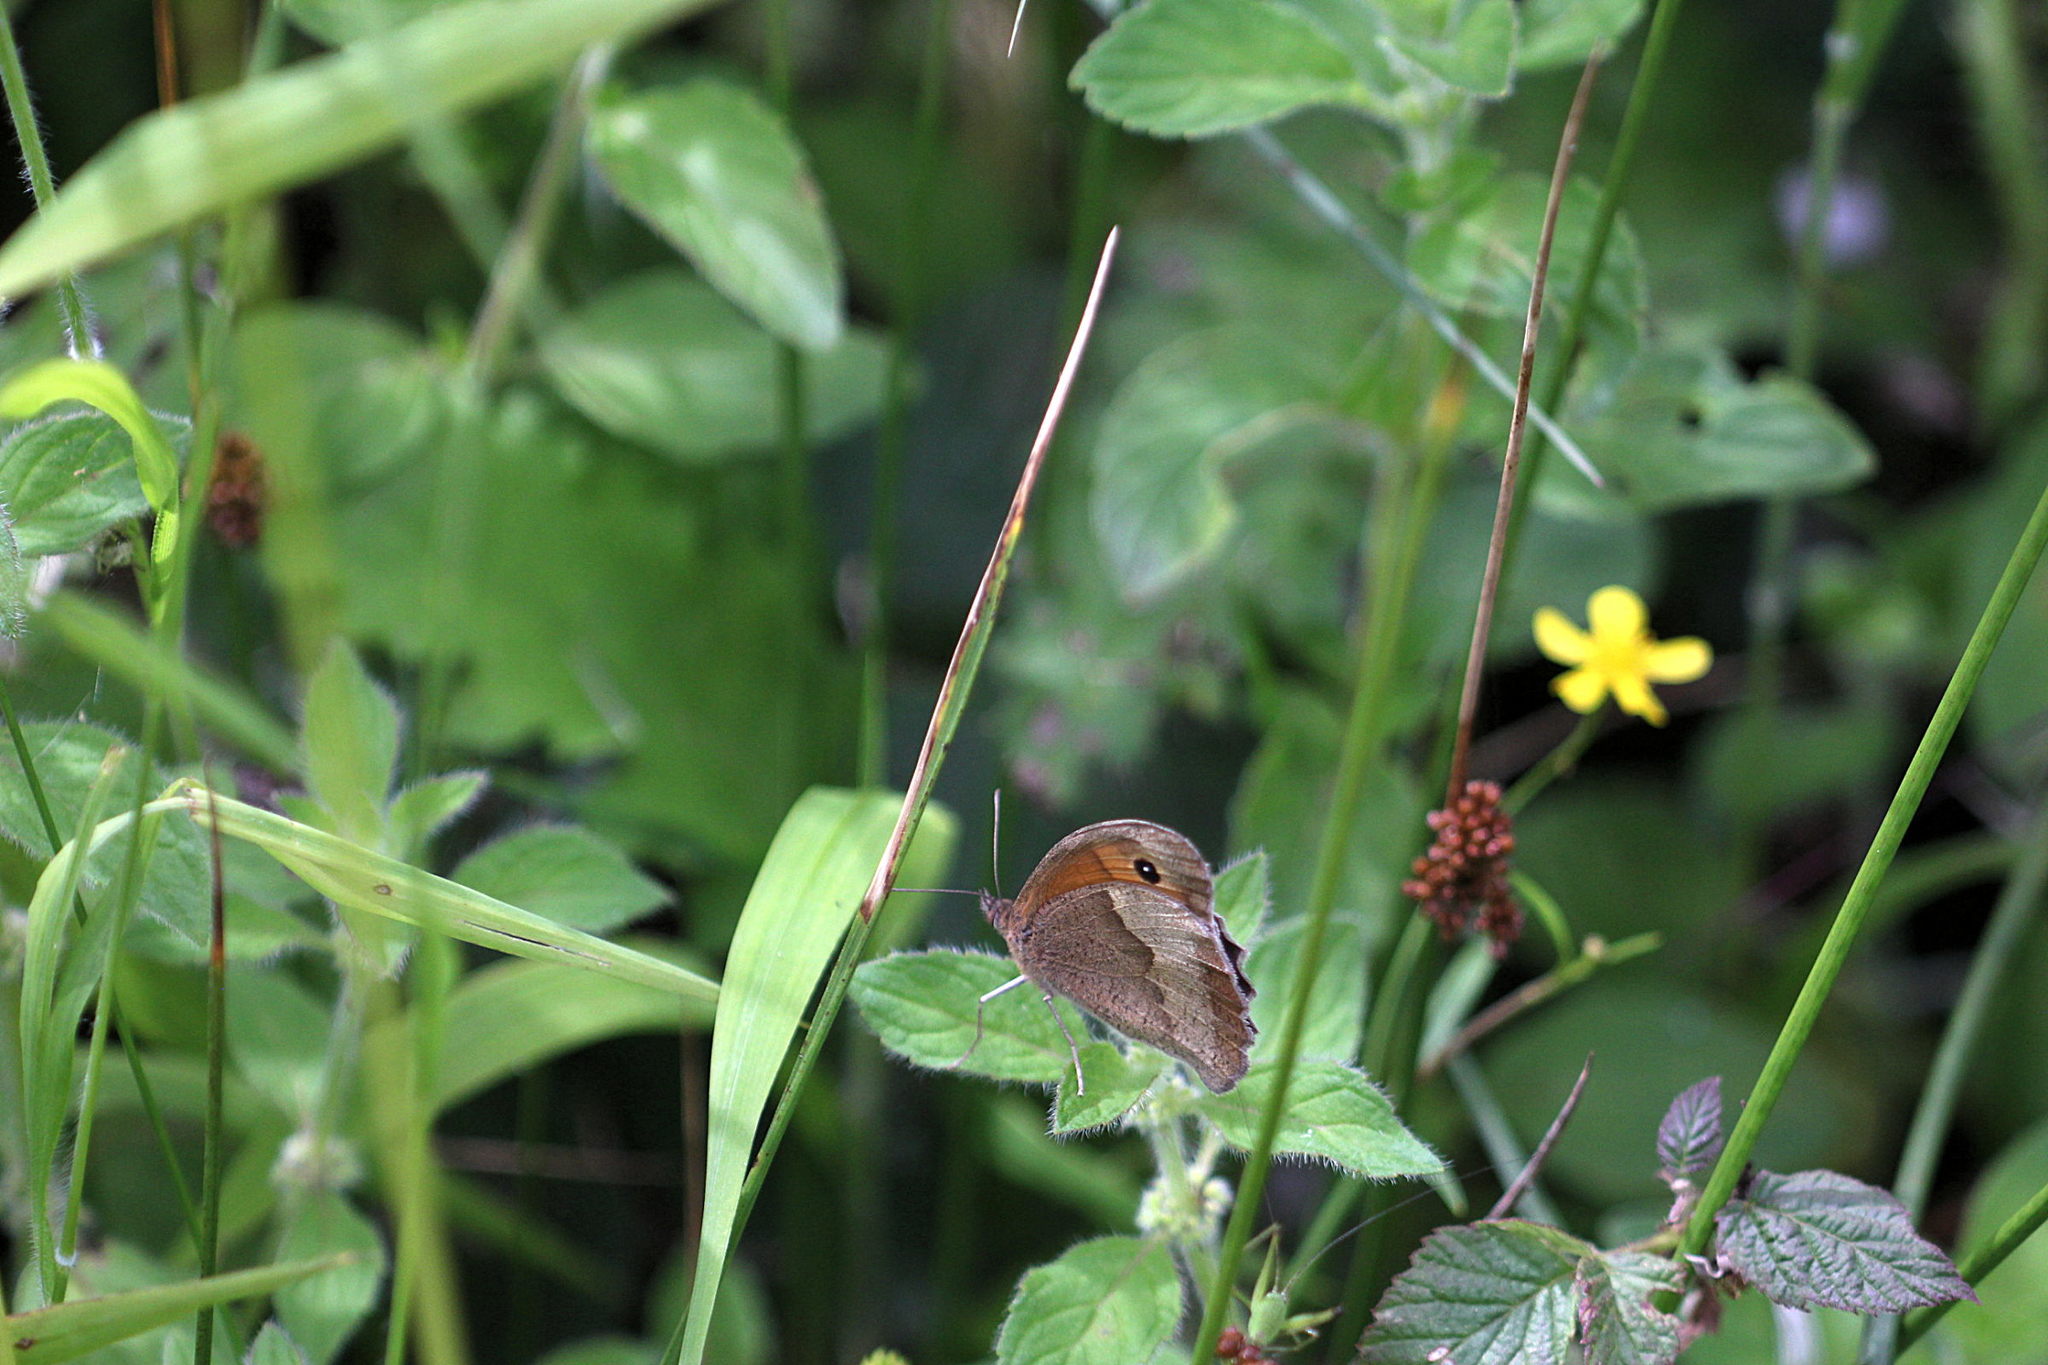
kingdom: Animalia
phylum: Arthropoda
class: Insecta
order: Lepidoptera
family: Nymphalidae
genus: Maniola
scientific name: Maniola jurtina
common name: Meadow brown
